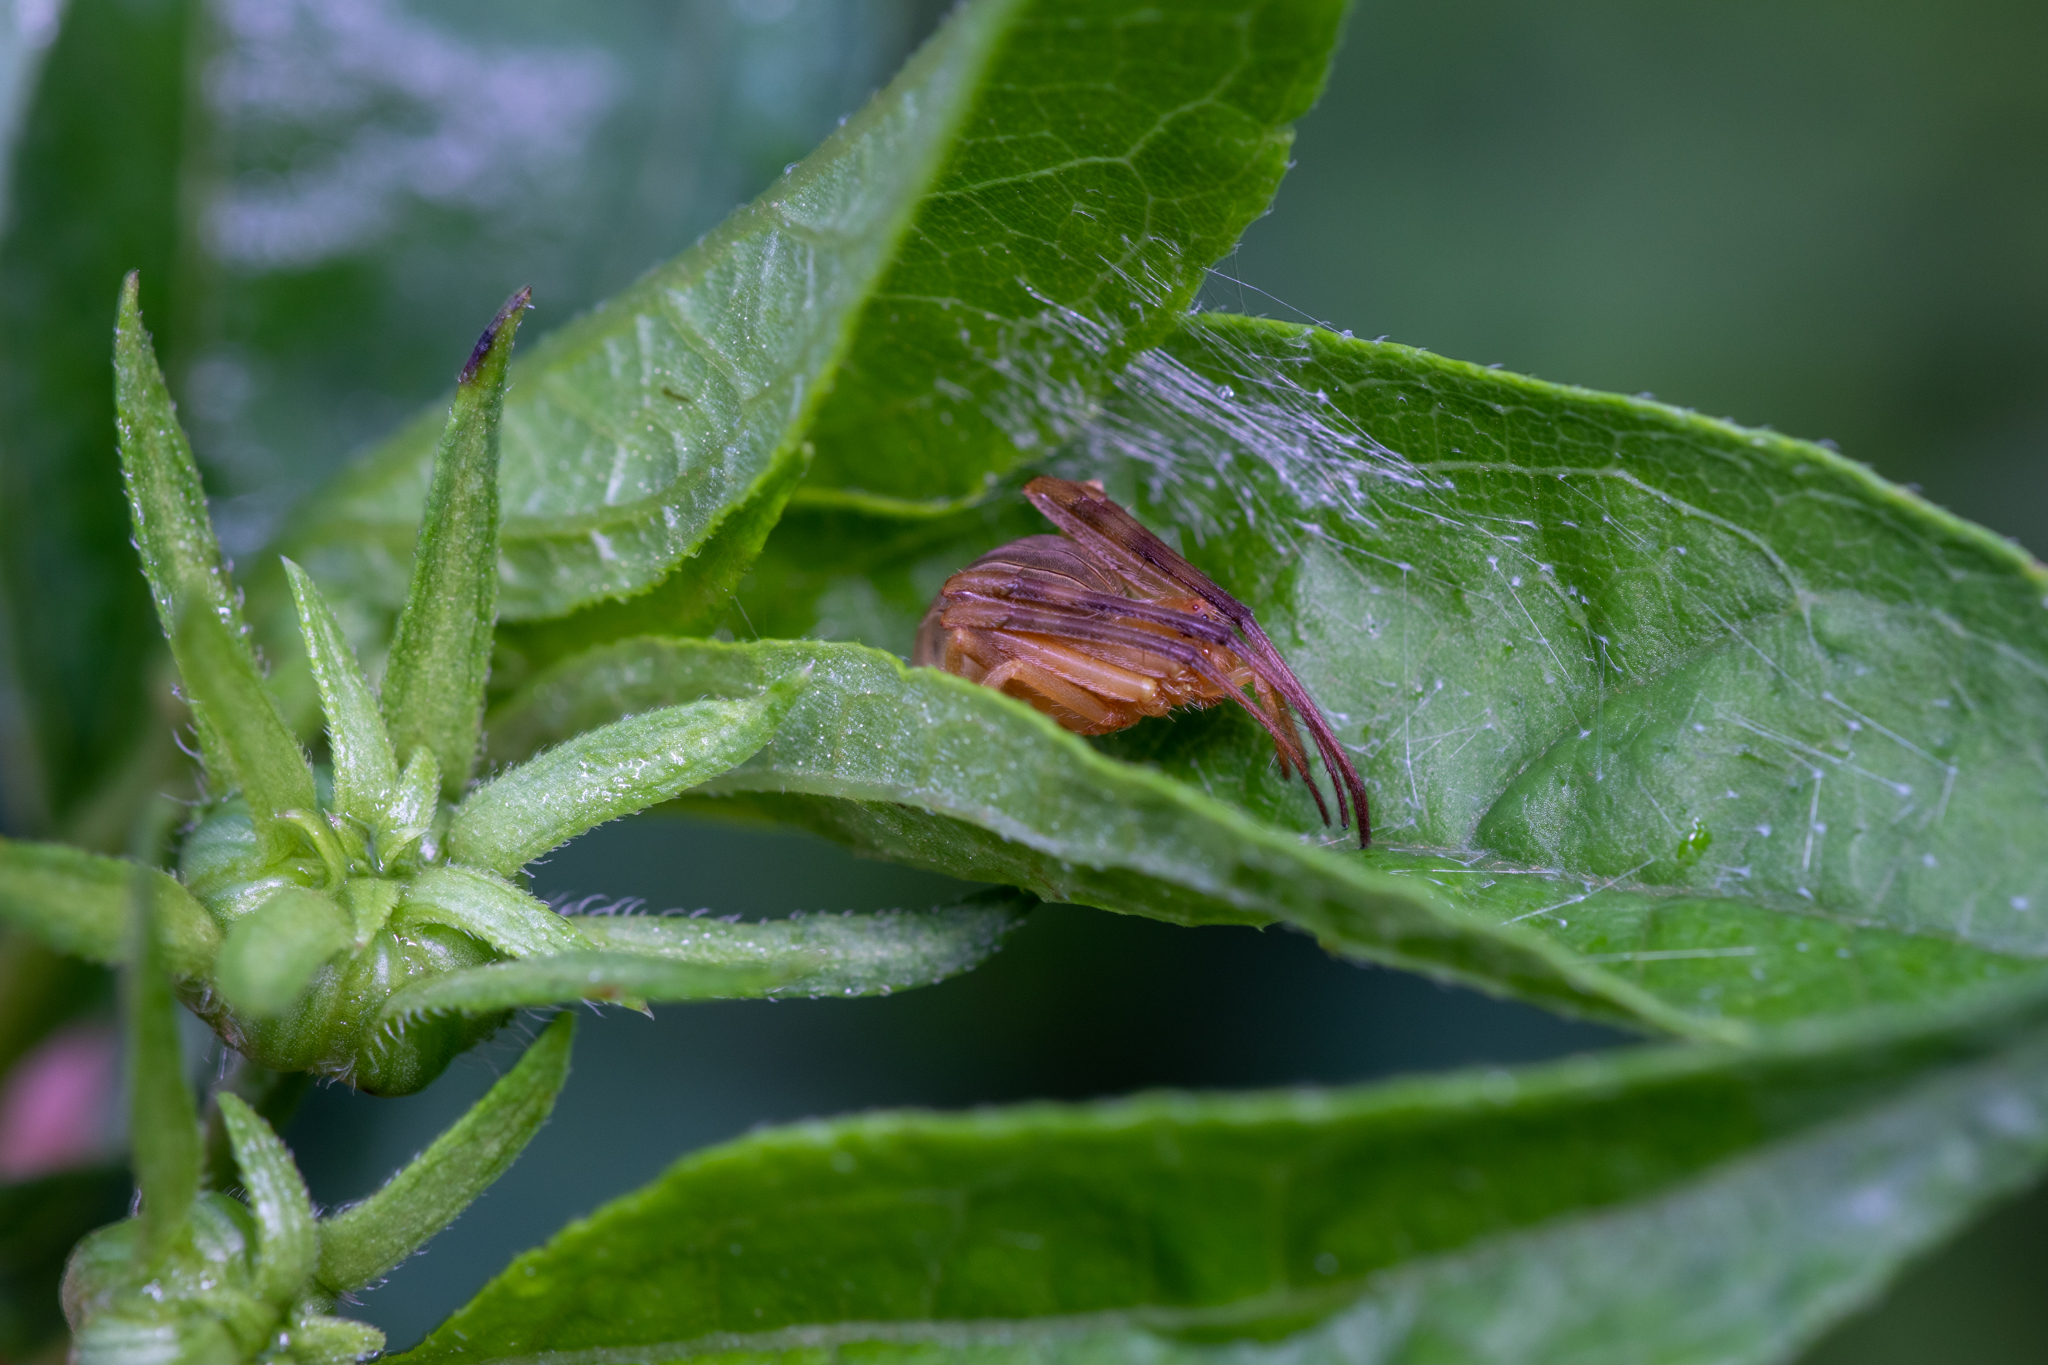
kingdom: Animalia
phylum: Arthropoda
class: Arachnida
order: Araneae
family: Araneidae
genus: Acacesia
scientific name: Acacesia hamata
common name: Orb weavers
